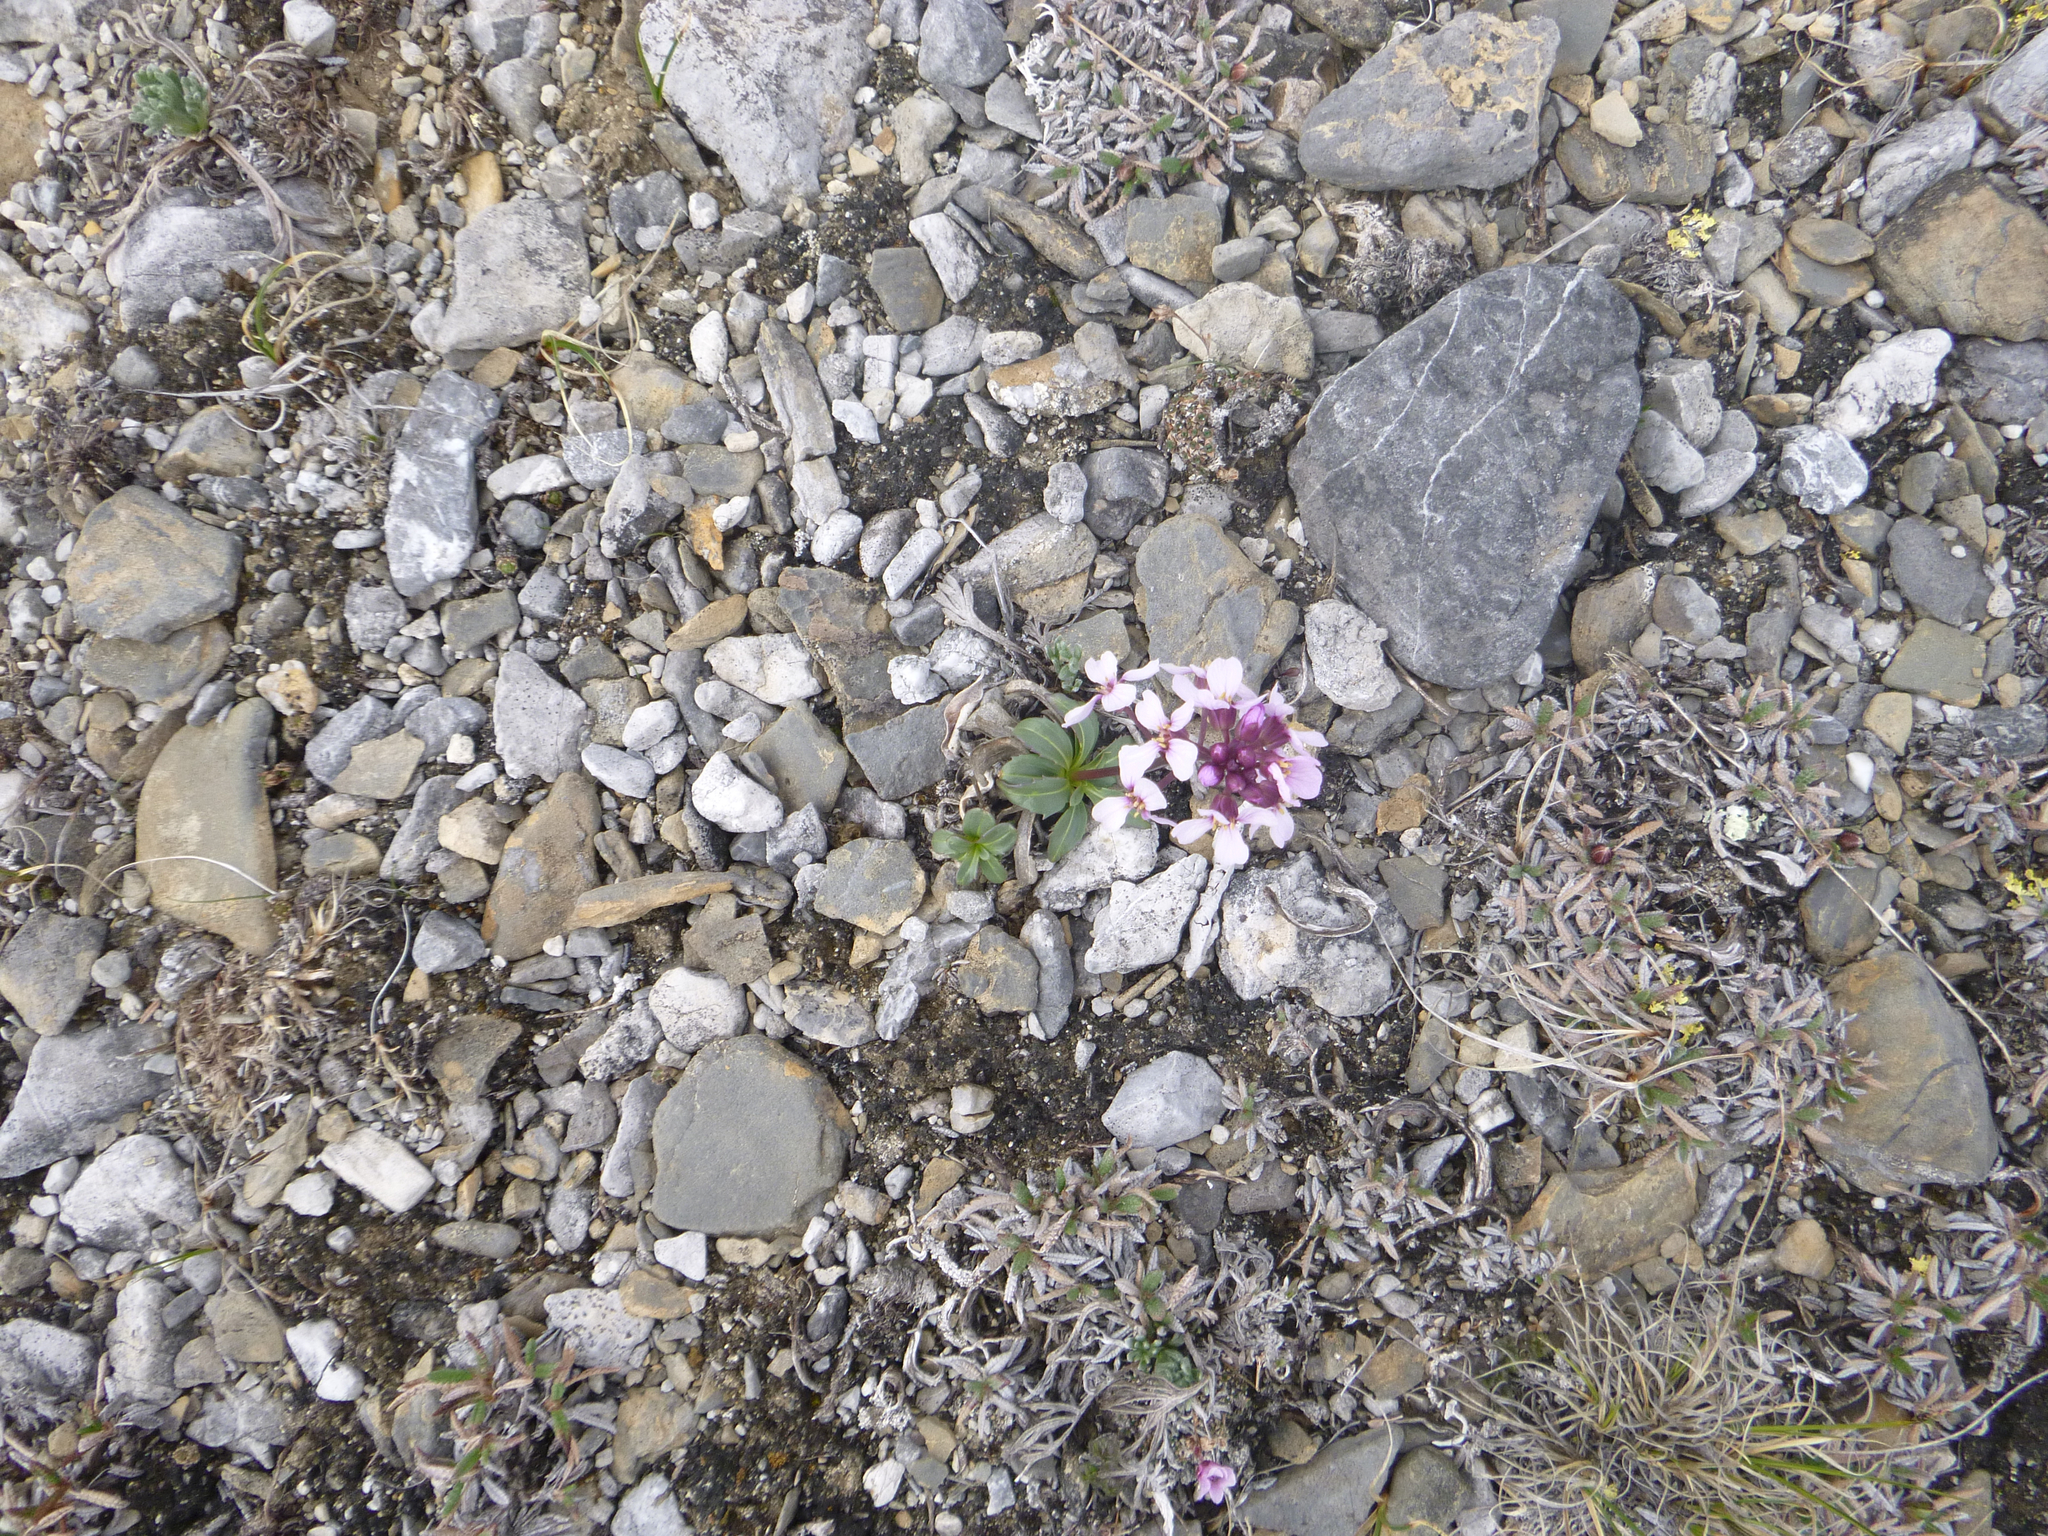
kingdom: Plantae
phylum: Tracheophyta
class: Magnoliopsida
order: Brassicales
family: Brassicaceae
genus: Parrya
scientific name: Parrya nudicaulis
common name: Naked-stemmed false wallflower
